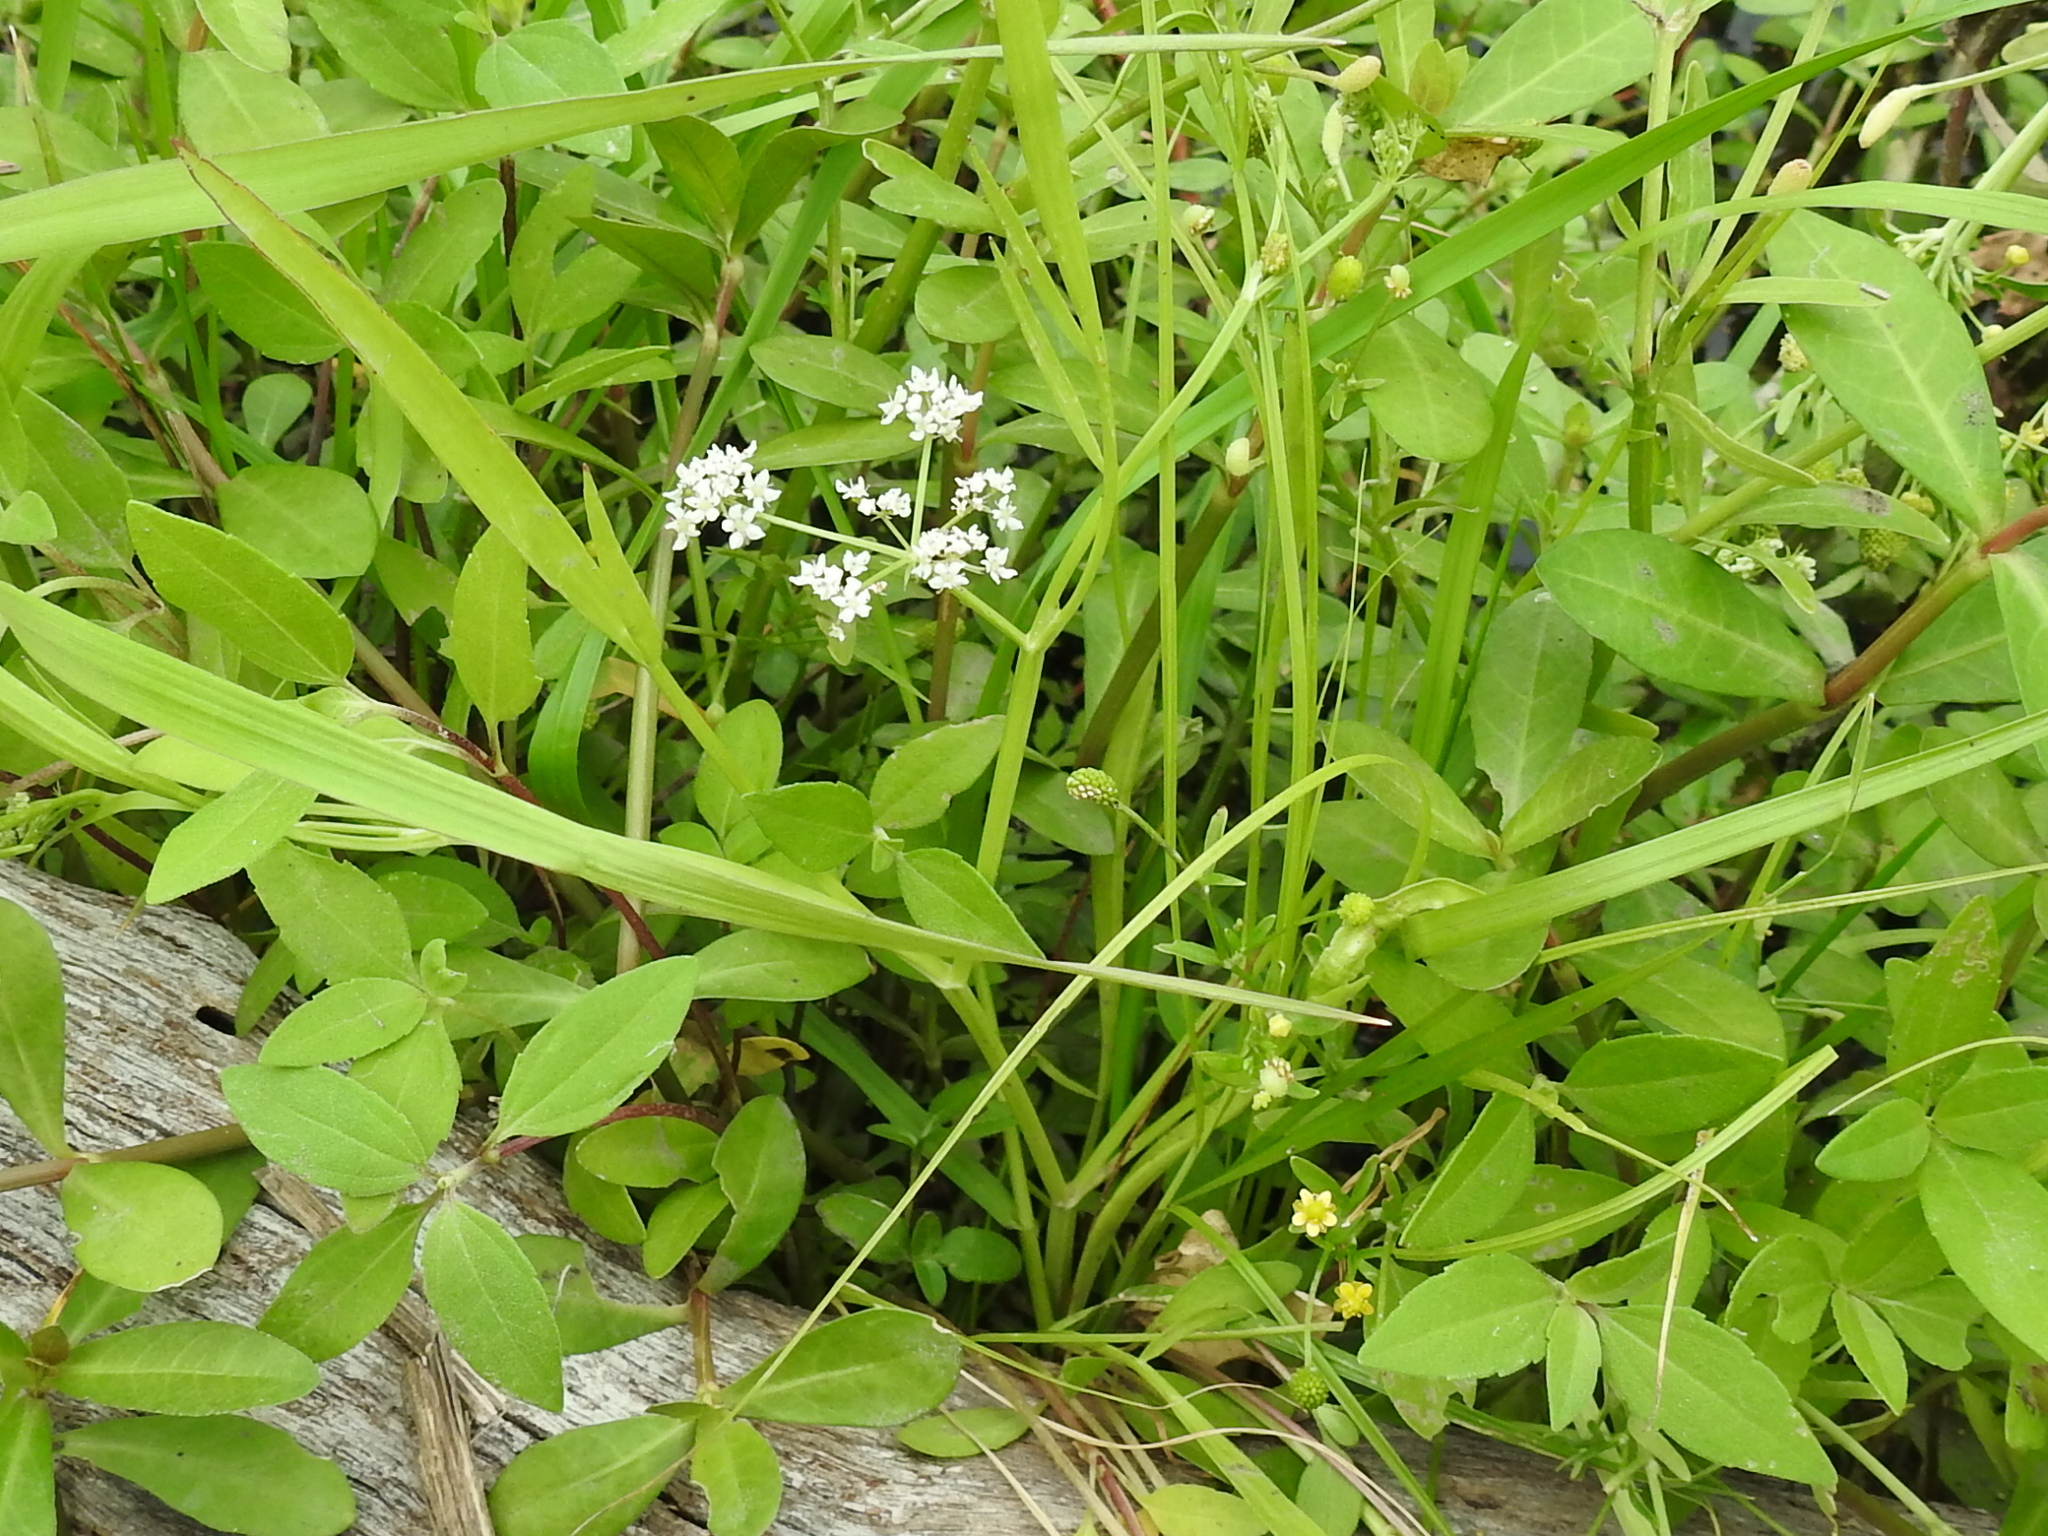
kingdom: Plantae
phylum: Tracheophyta
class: Magnoliopsida
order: Apiales
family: Apiaceae
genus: Limnosciadium
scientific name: Limnosciadium pinnatum
